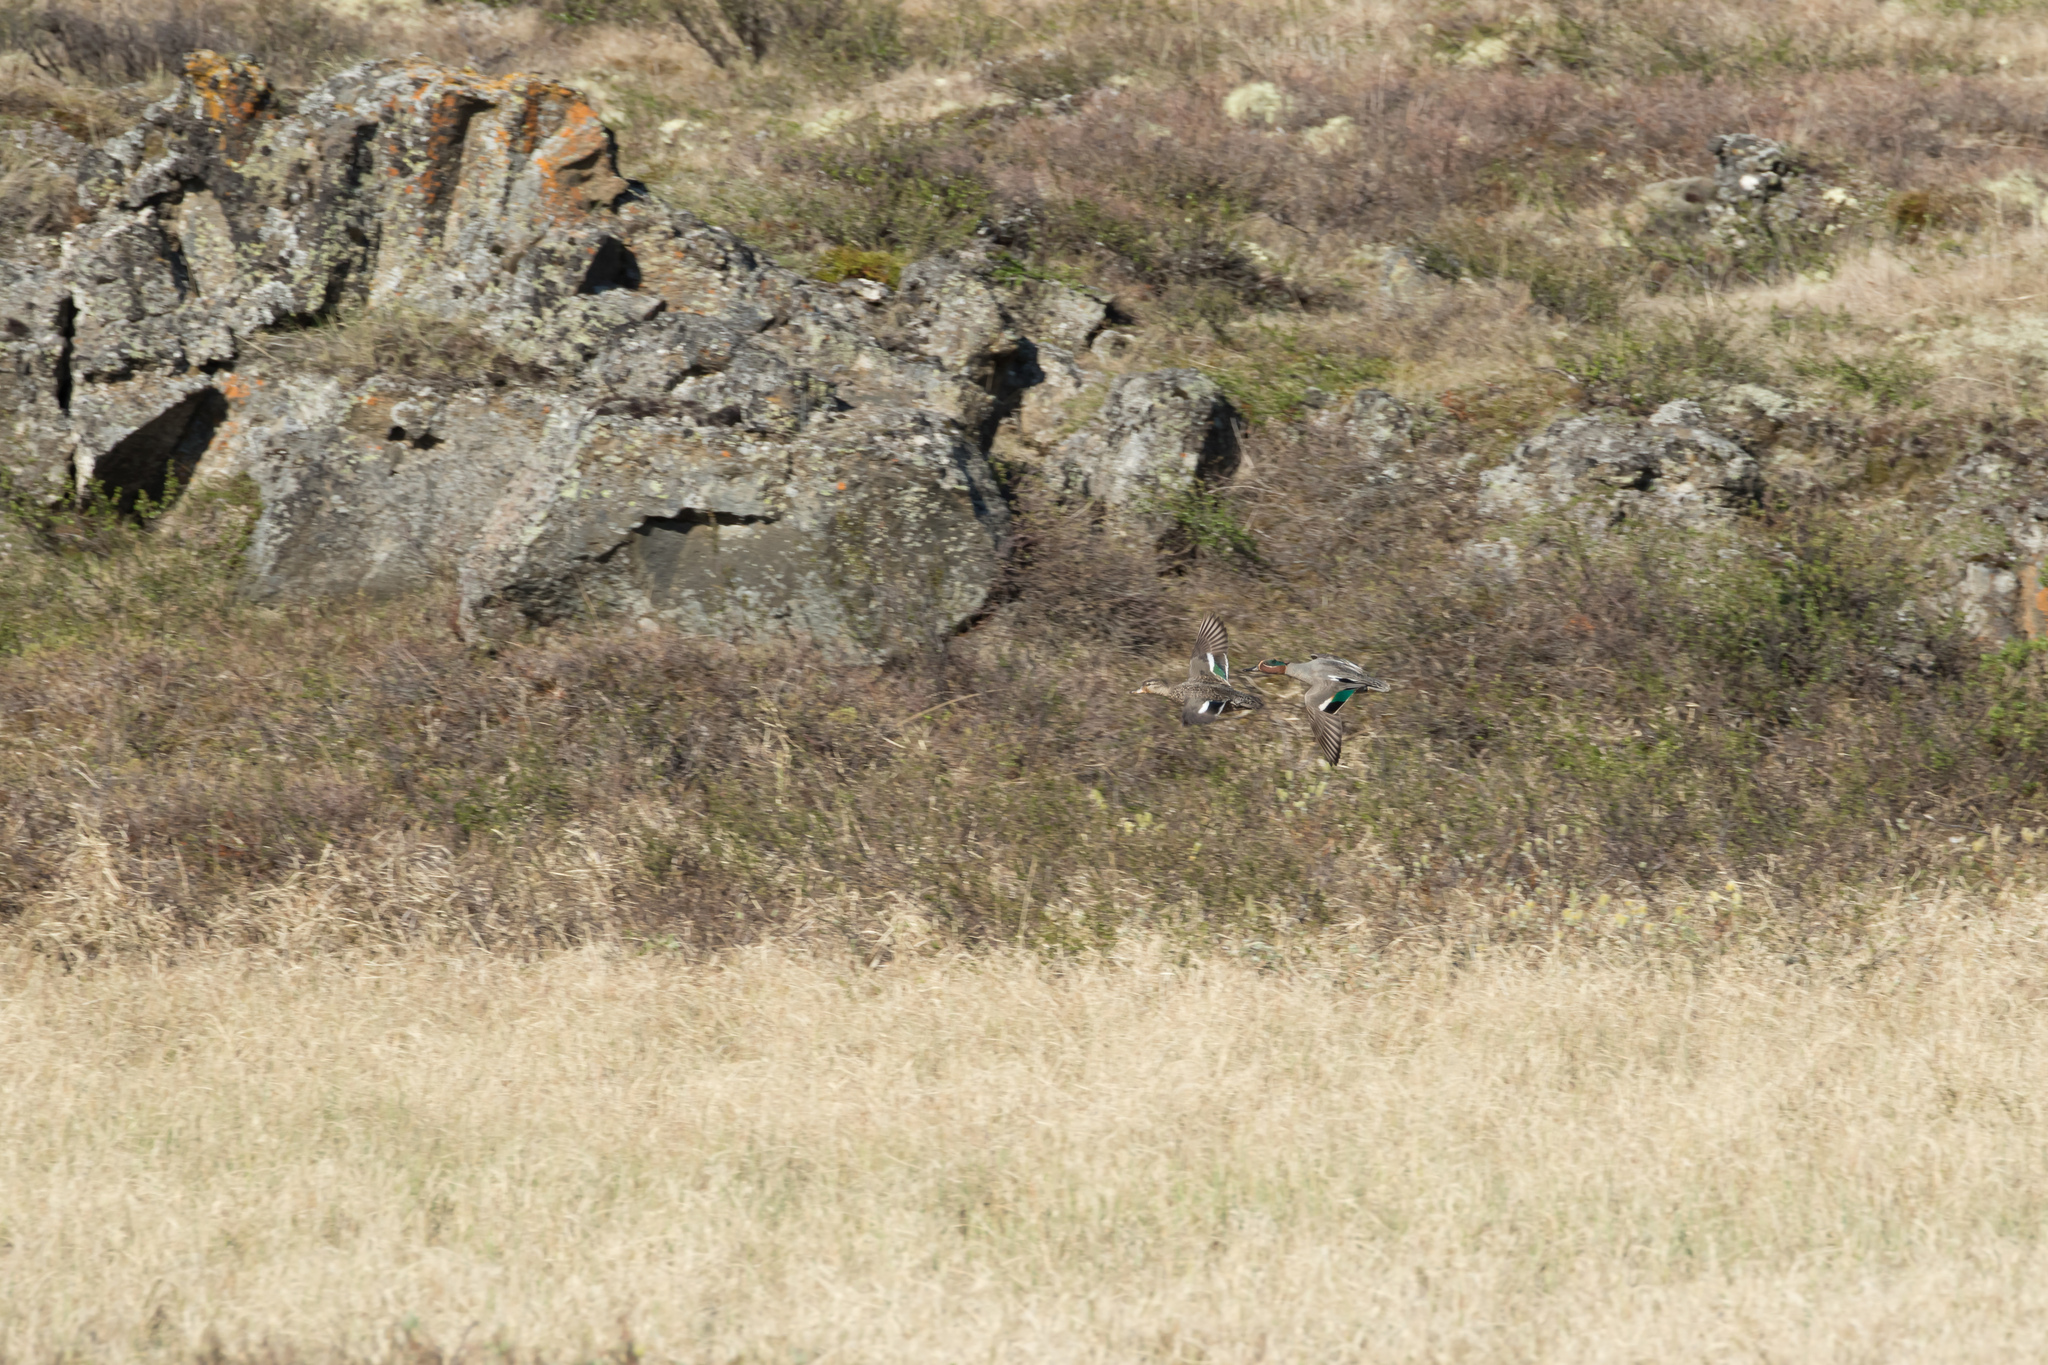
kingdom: Animalia
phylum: Chordata
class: Aves
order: Anseriformes
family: Anatidae
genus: Anas
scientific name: Anas crecca
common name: Eurasian teal
